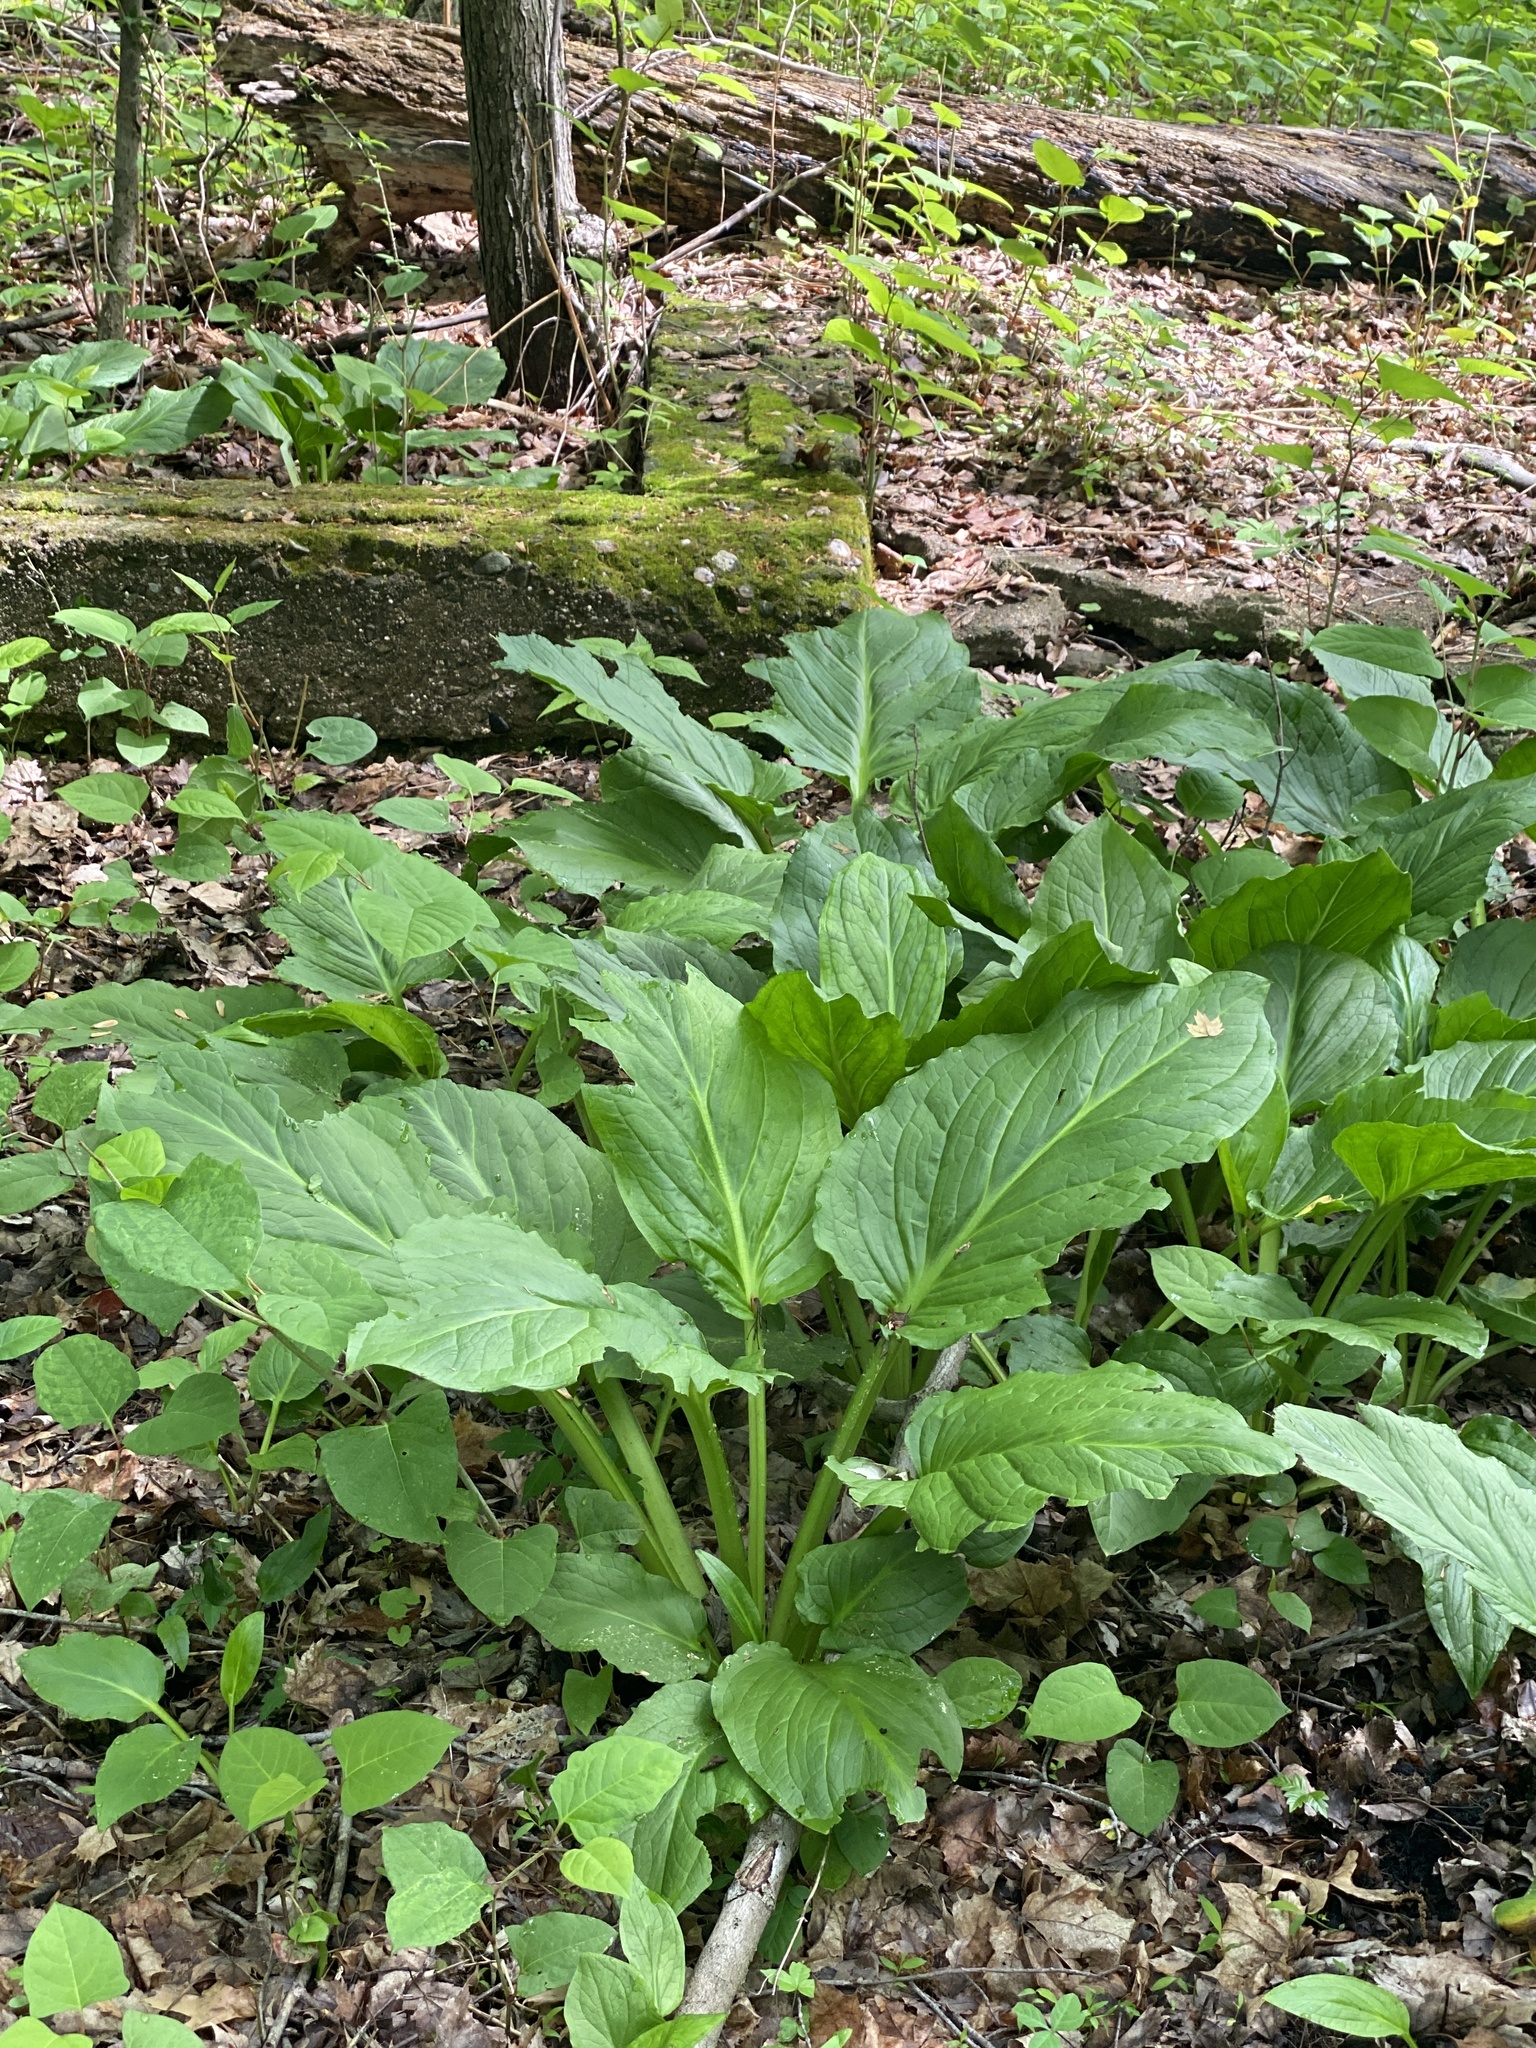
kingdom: Plantae
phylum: Tracheophyta
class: Liliopsida
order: Alismatales
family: Araceae
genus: Symplocarpus
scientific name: Symplocarpus foetidus
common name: Eastern skunk cabbage
